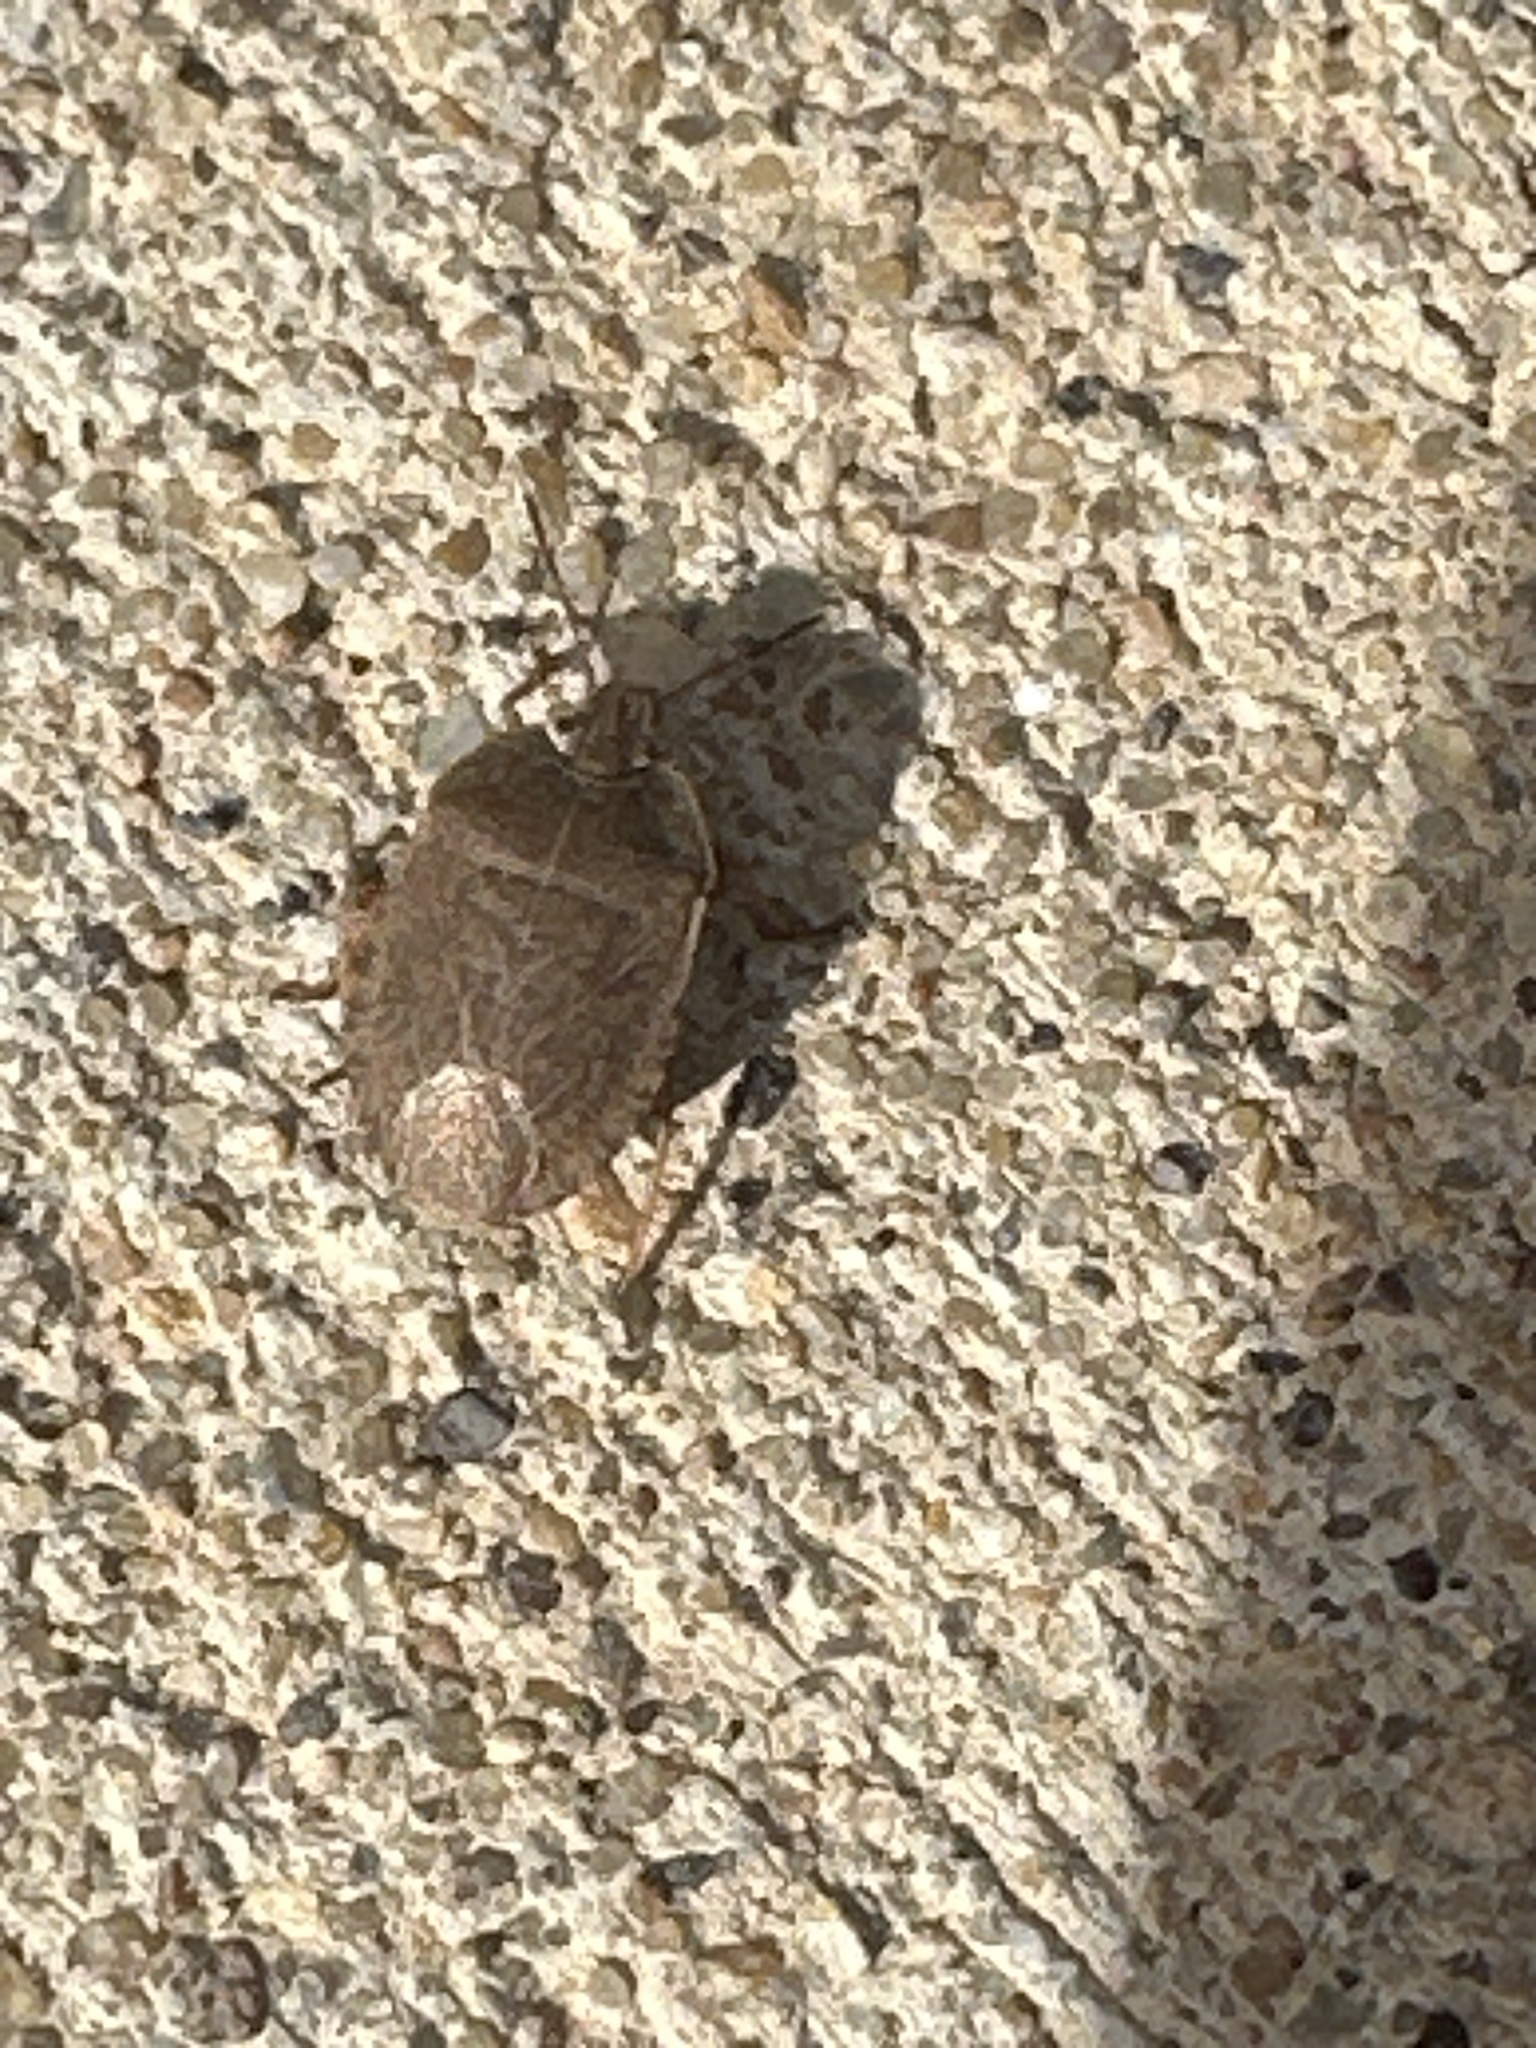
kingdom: Animalia
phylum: Arthropoda
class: Insecta
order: Hemiptera
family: Pentatomidae
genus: Menecles
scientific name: Menecles insertus
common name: Elf shoe stink bug
